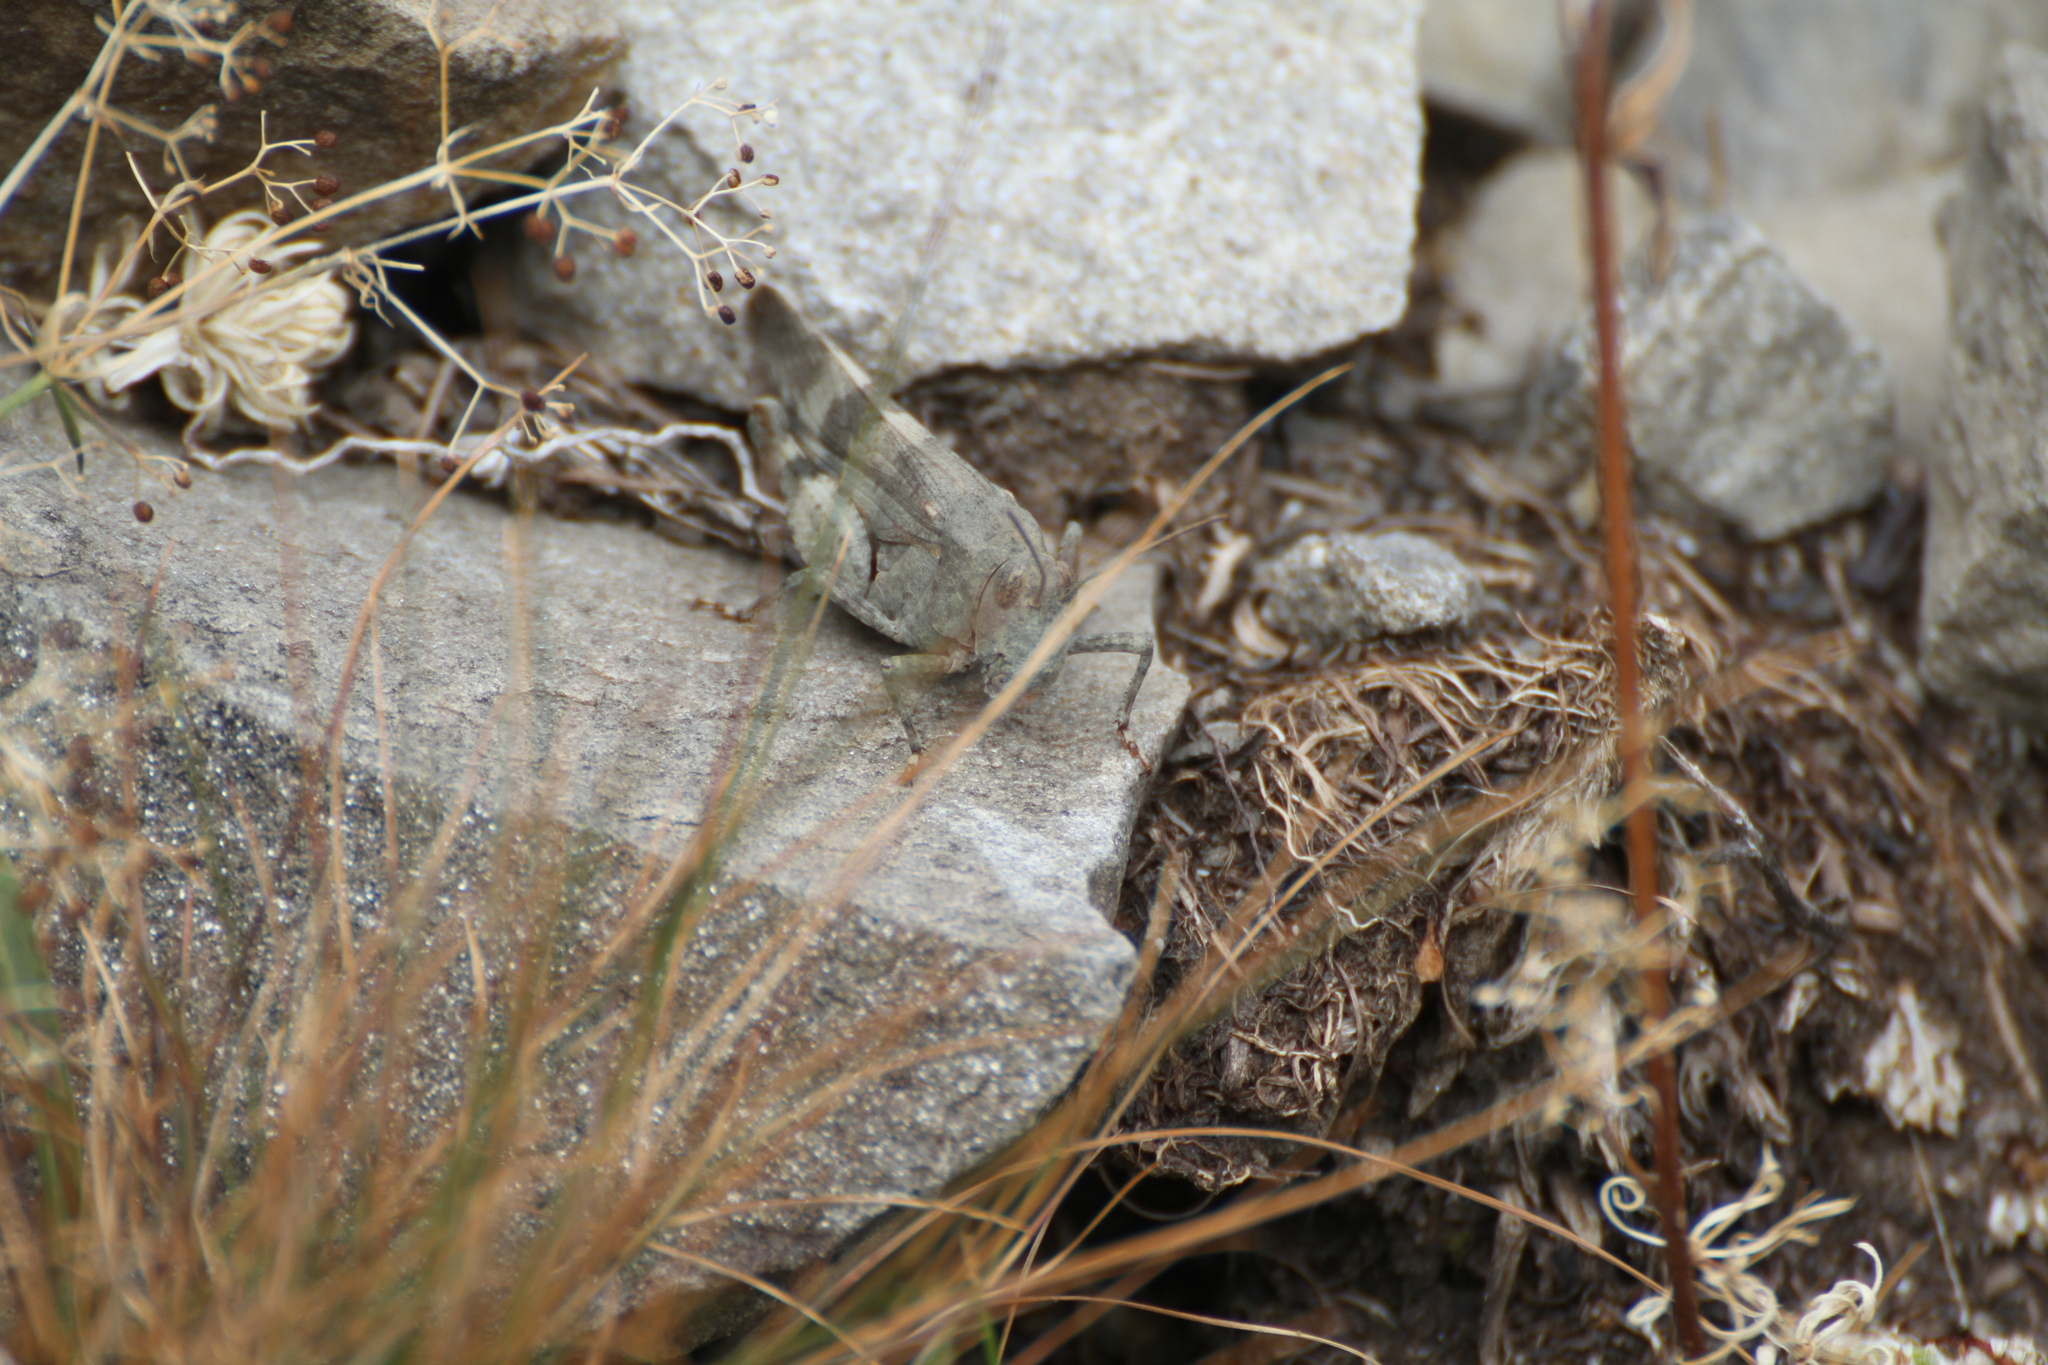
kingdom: Animalia
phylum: Arthropoda
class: Insecta
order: Orthoptera
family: Acrididae
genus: Oedipoda
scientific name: Oedipoda germanica
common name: Red band-winged grasshopper
